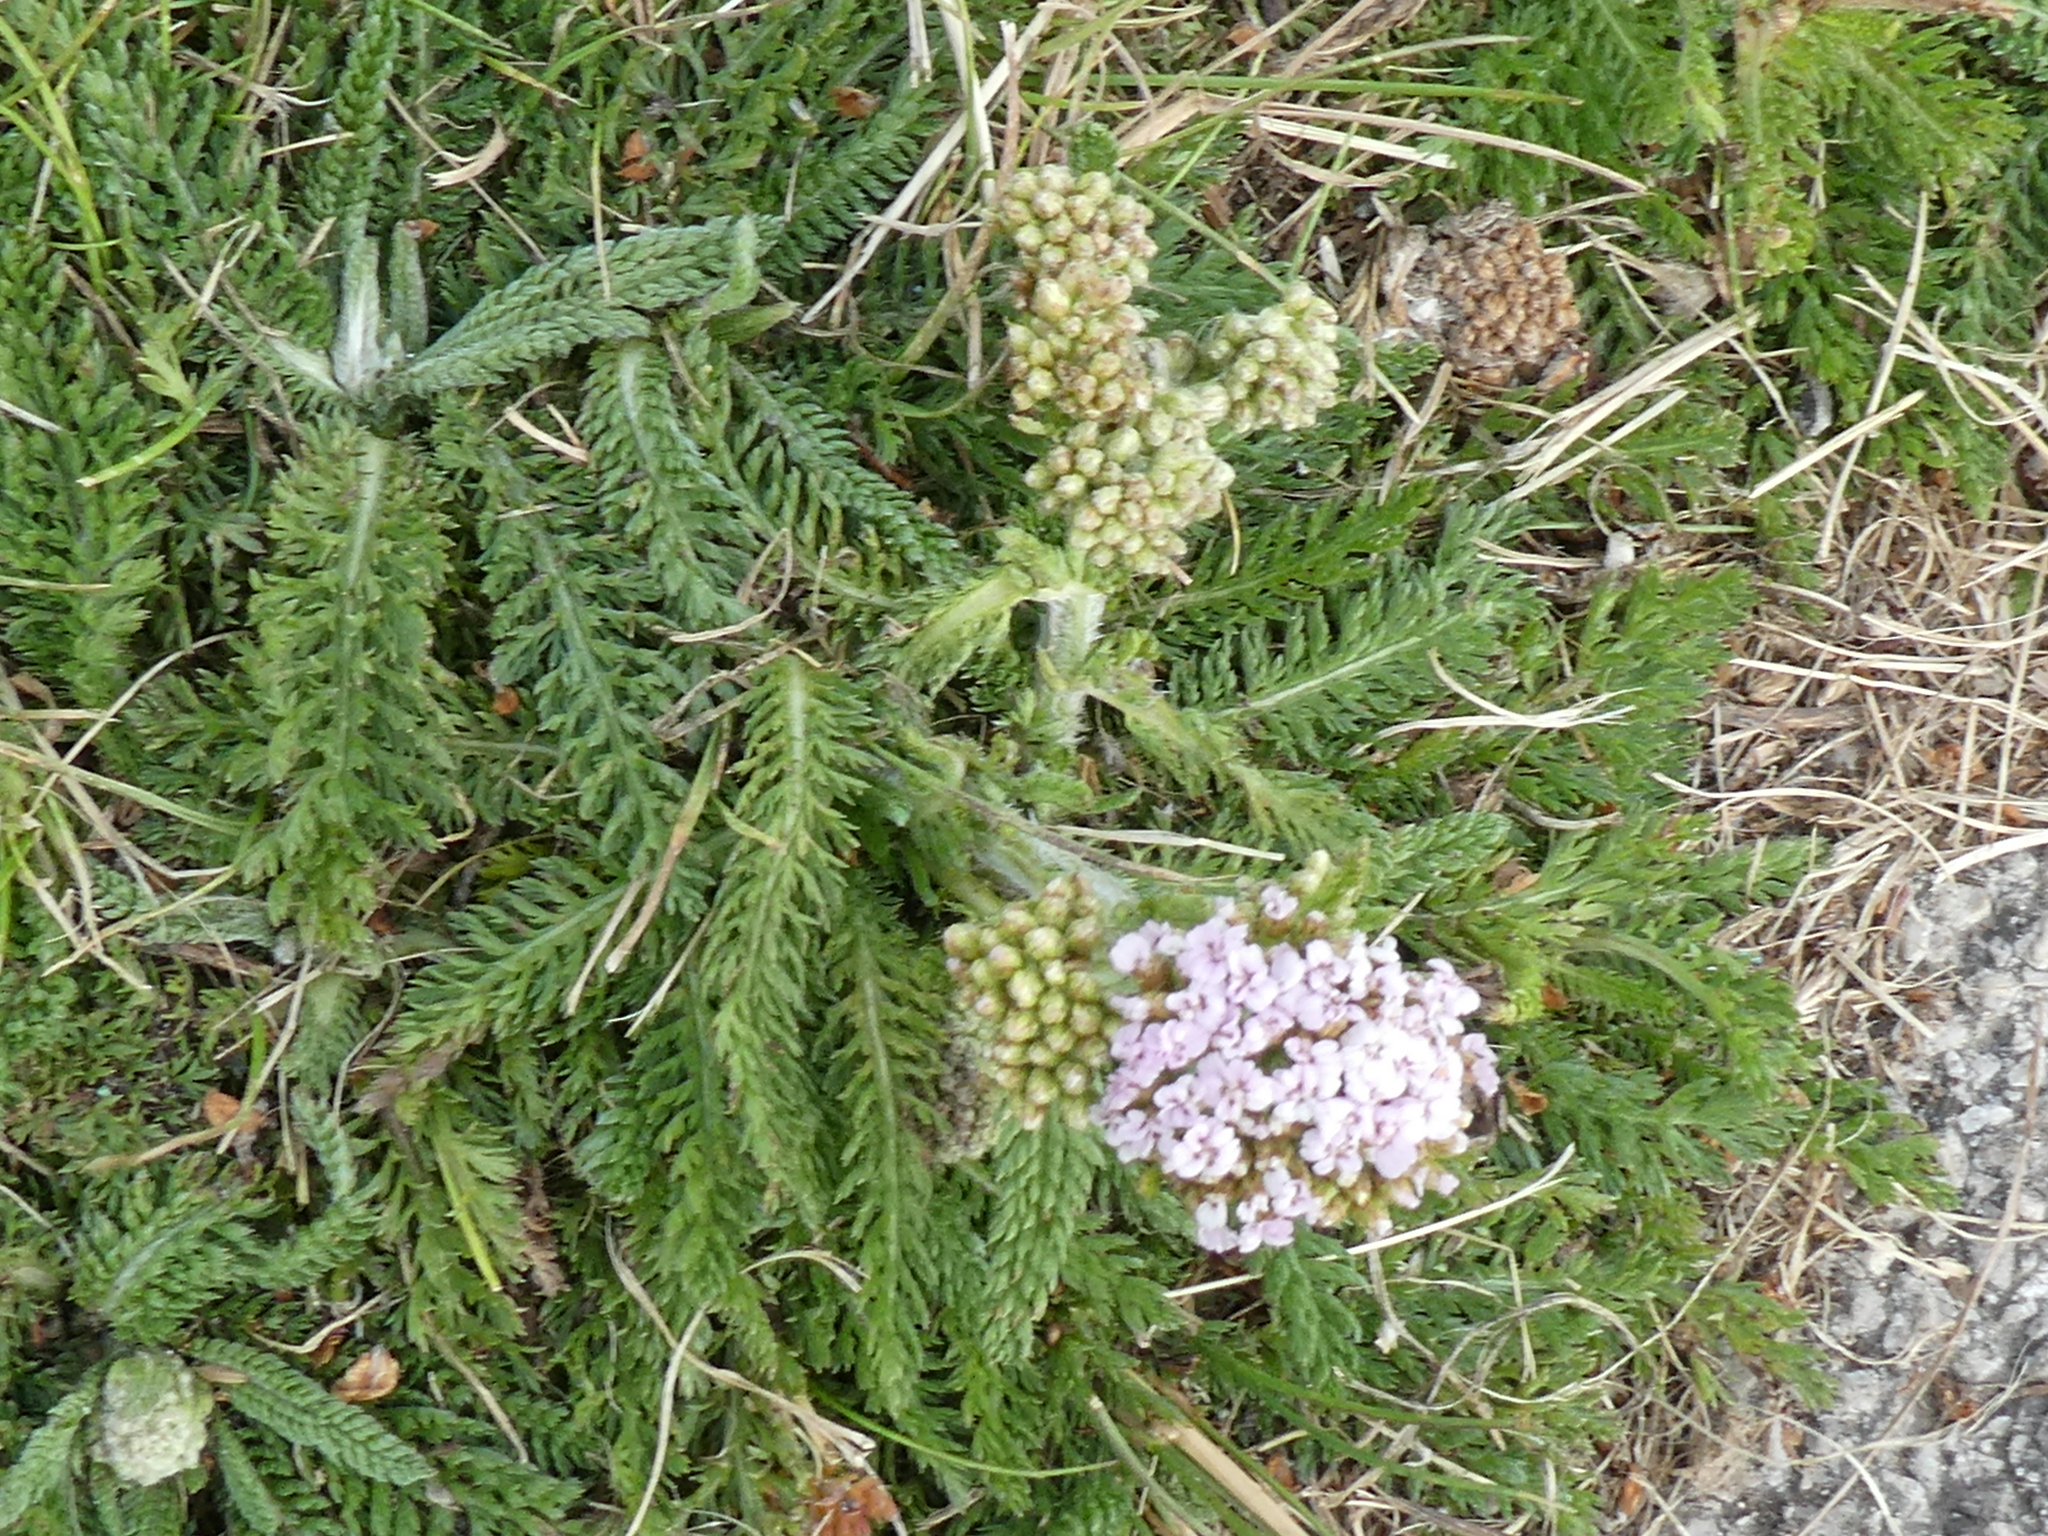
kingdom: Plantae
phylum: Tracheophyta
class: Magnoliopsida
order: Asterales
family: Asteraceae
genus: Achillea
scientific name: Achillea millefolium
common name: Yarrow
